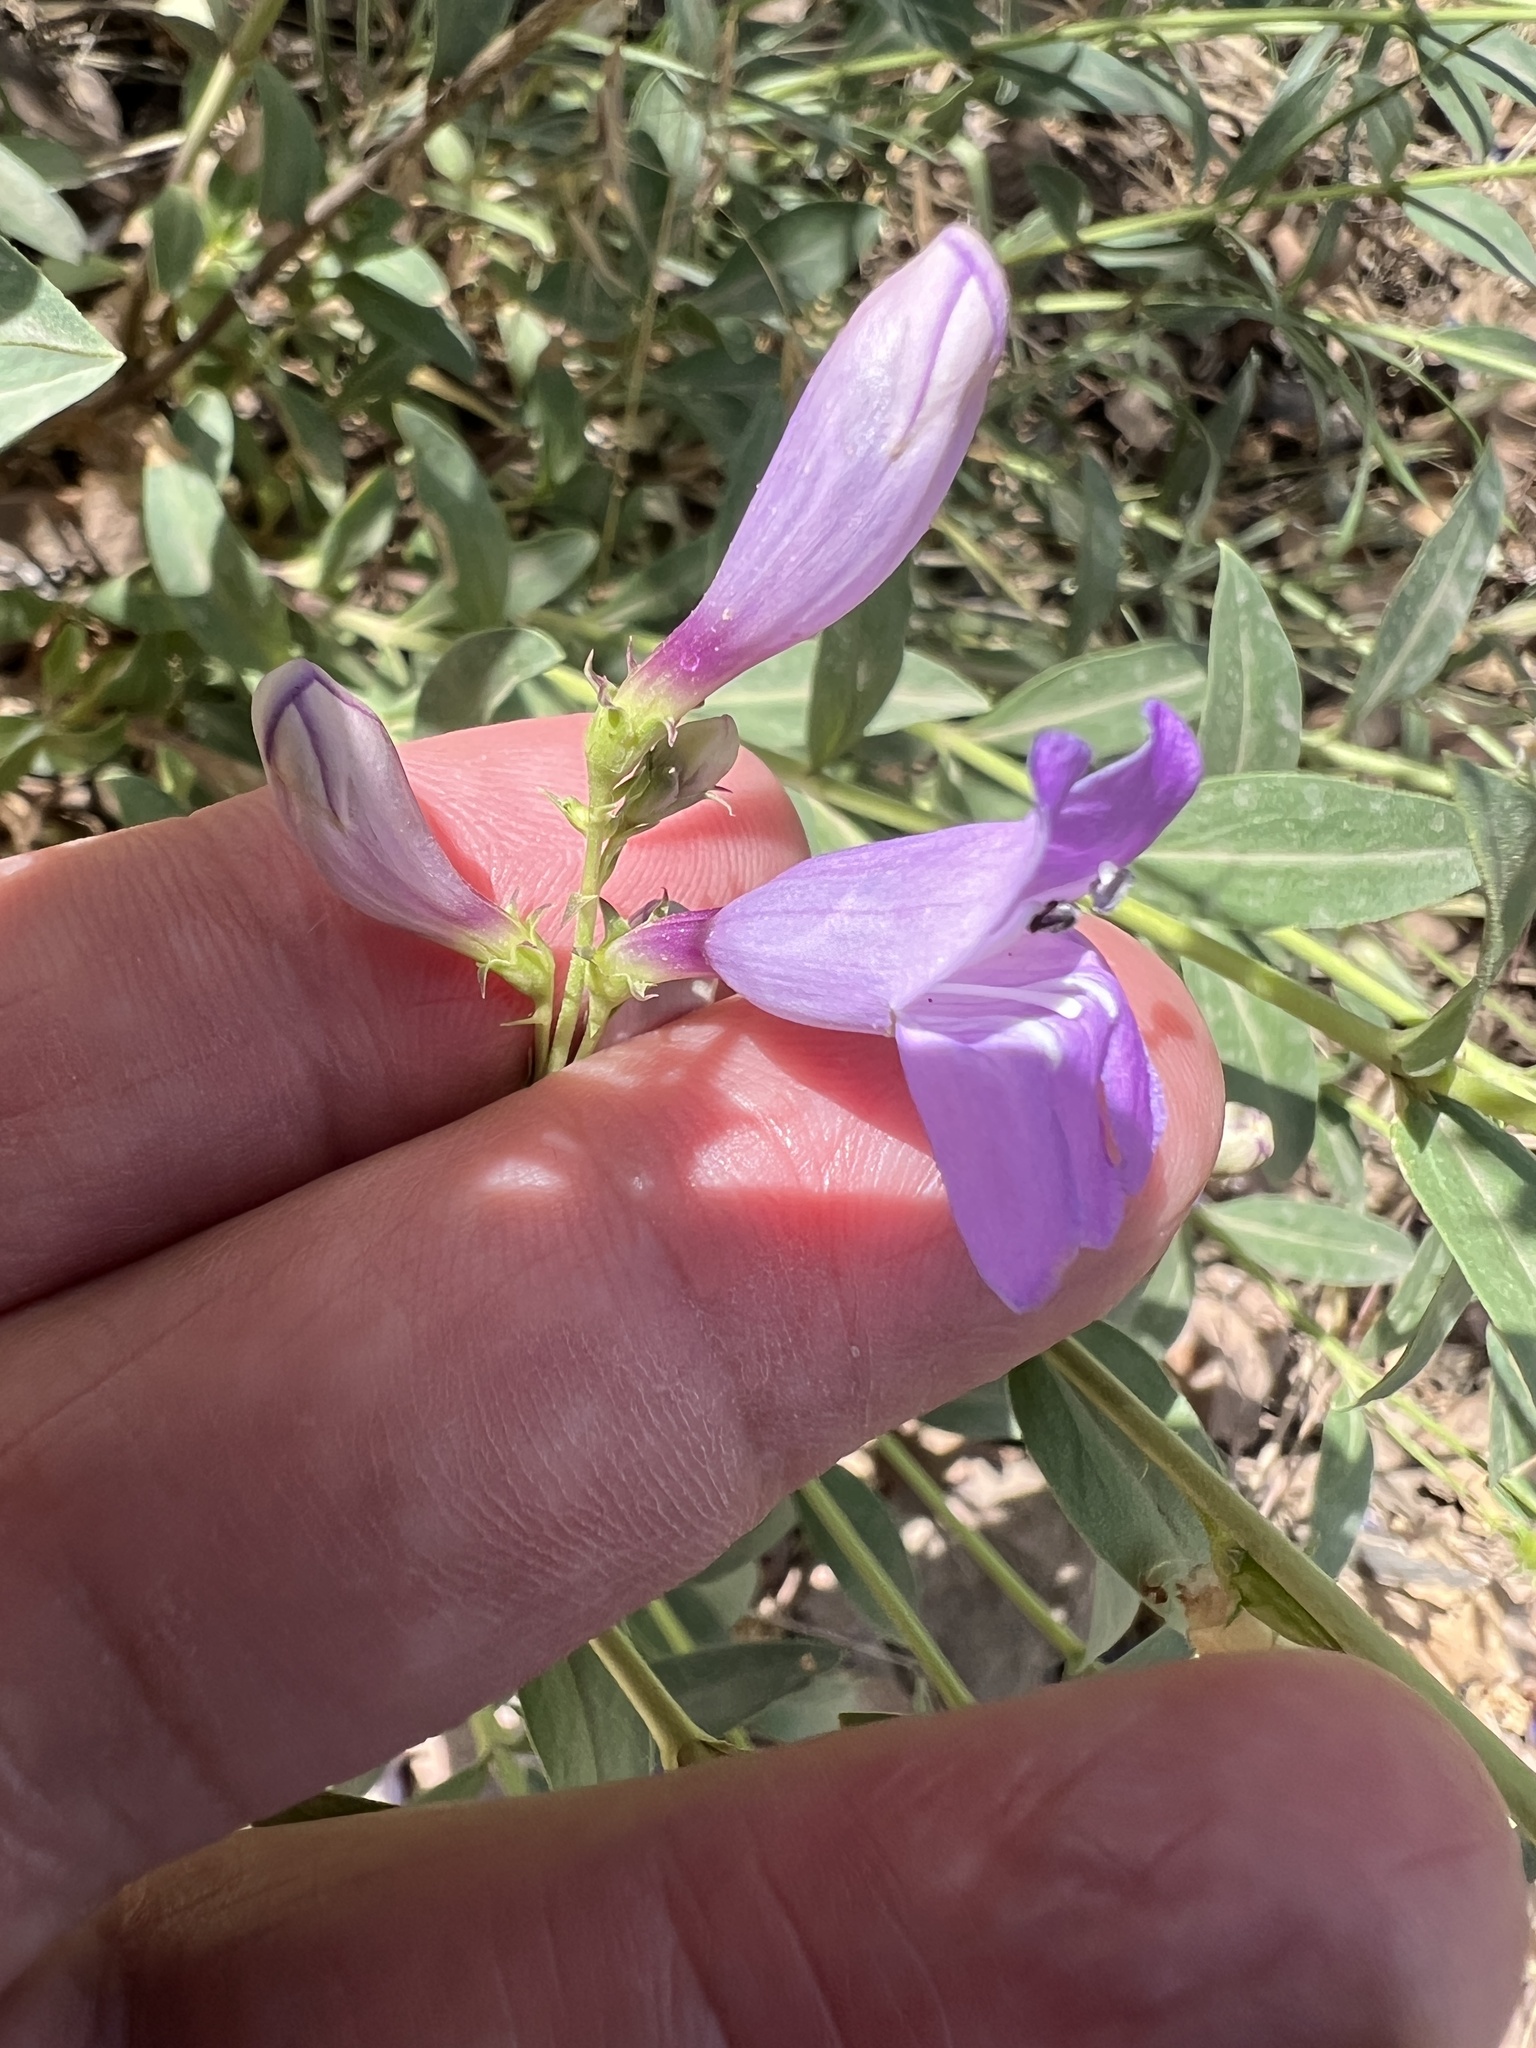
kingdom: Plantae
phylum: Tracheophyta
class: Magnoliopsida
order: Lamiales
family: Plantaginaceae
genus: Penstemon
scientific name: Penstemon platyphyllus
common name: Broadleaf penstemon
